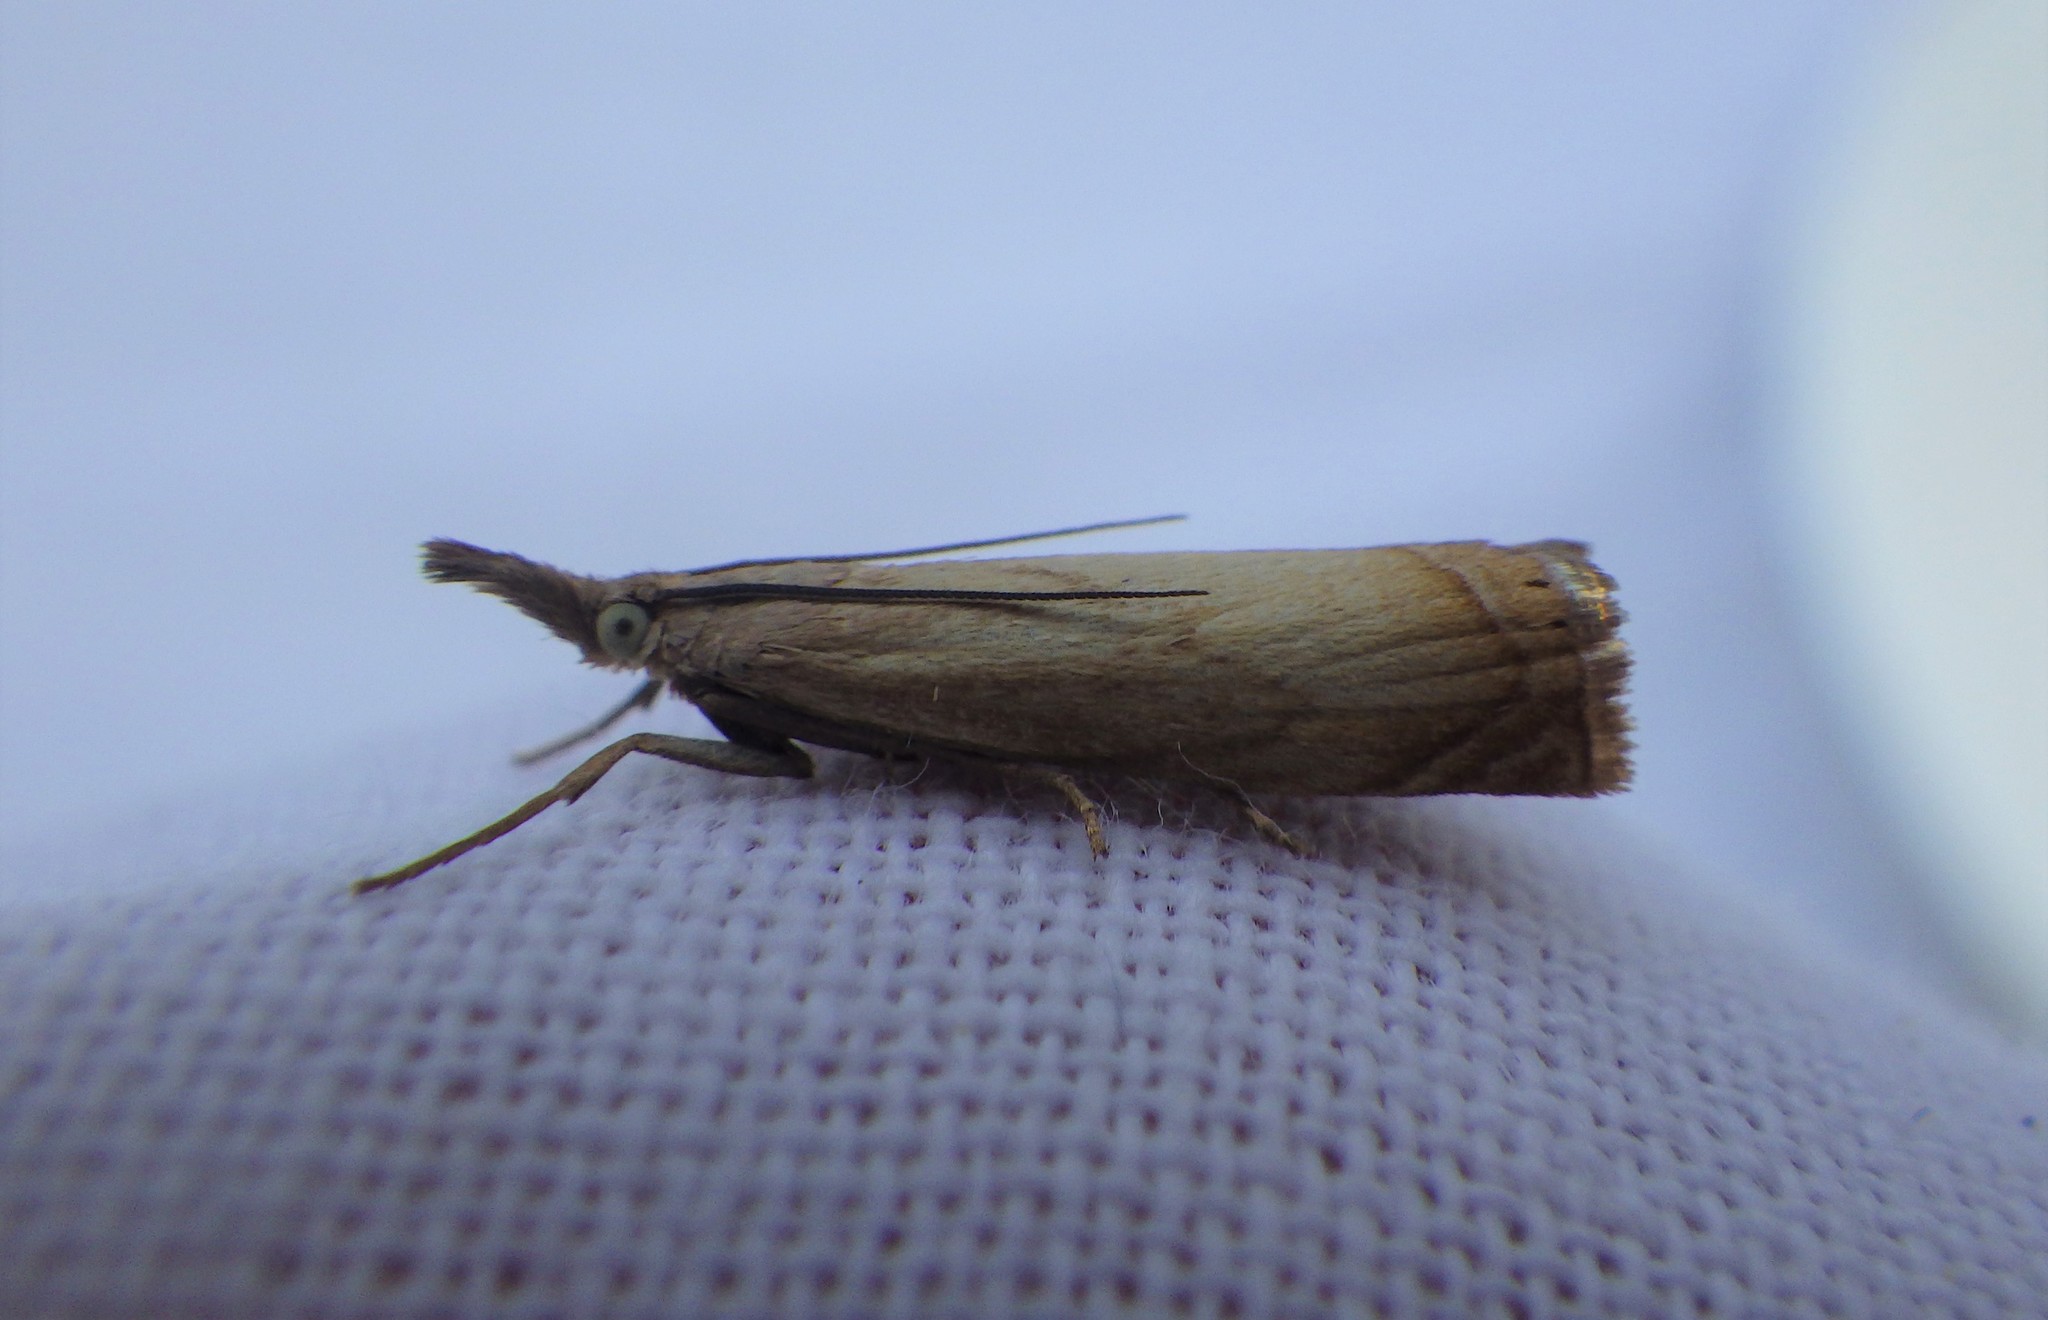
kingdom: Animalia
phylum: Arthropoda
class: Insecta
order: Lepidoptera
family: Crambidae
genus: Chrysoteuchia
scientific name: Chrysoteuchia culmella
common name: Garden grass-veneer
